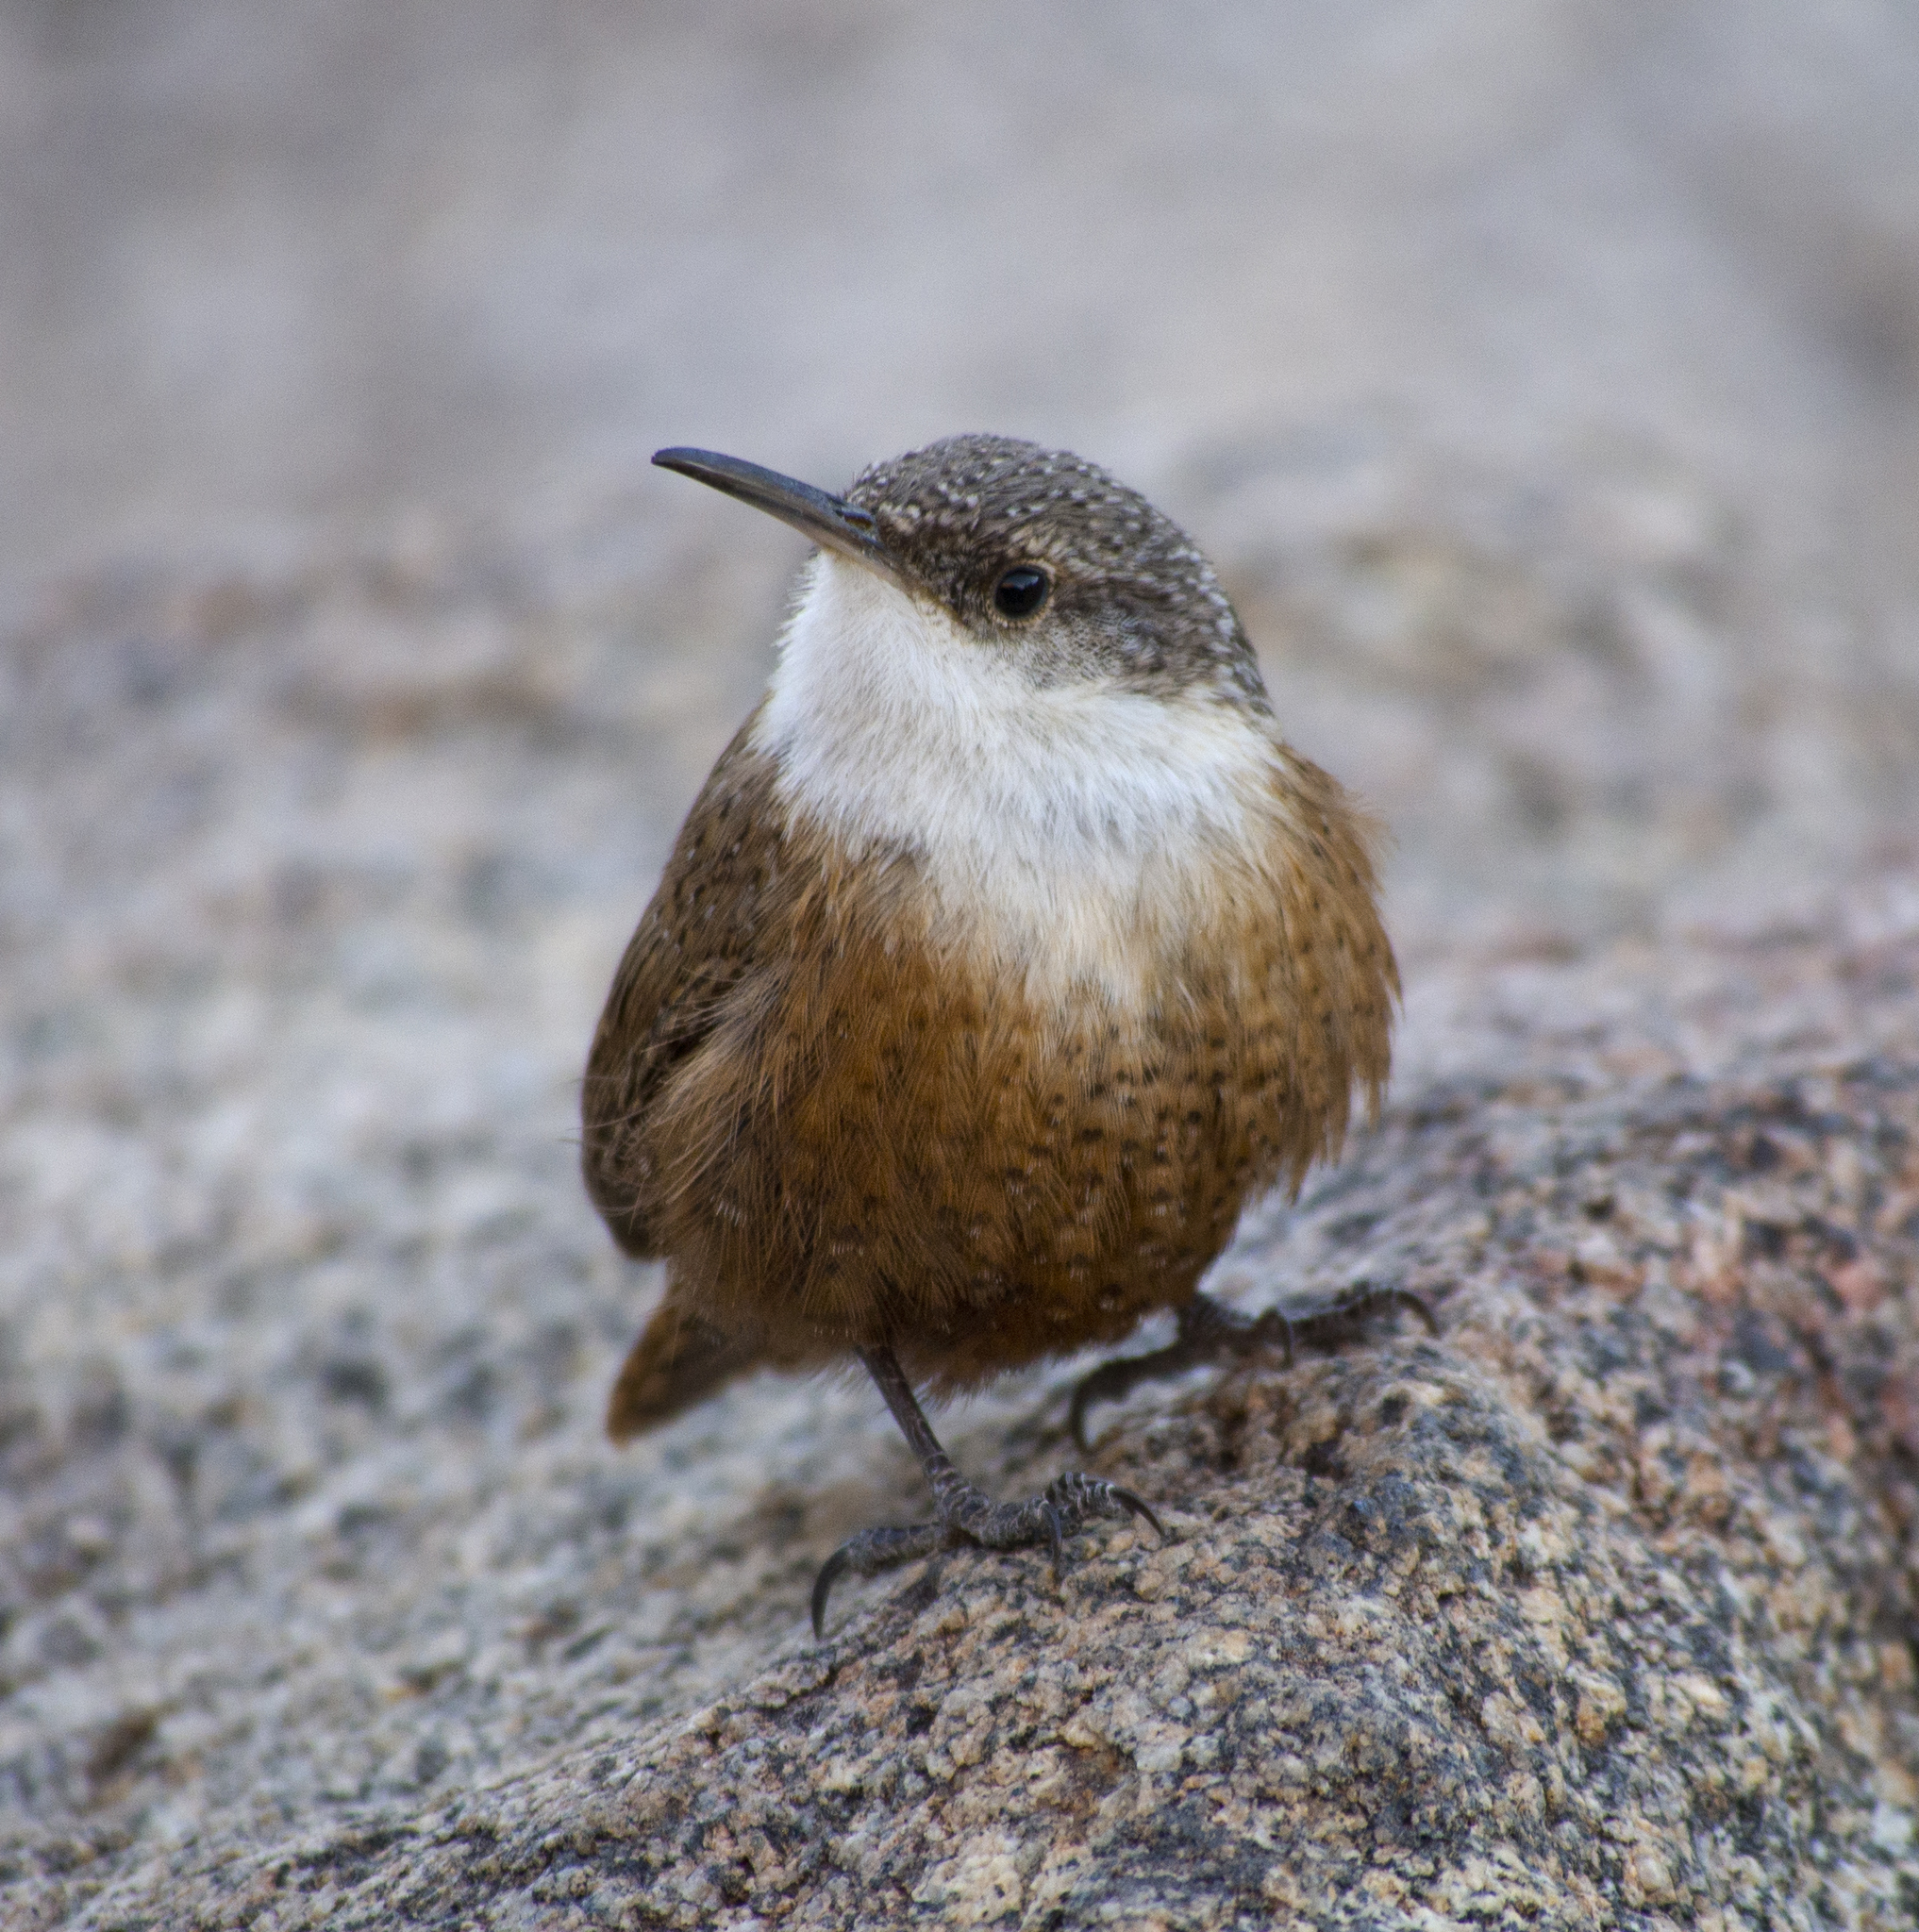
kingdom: Animalia
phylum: Chordata
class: Aves
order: Passeriformes
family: Troglodytidae
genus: Catherpes
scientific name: Catherpes mexicanus
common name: Canyon wren
